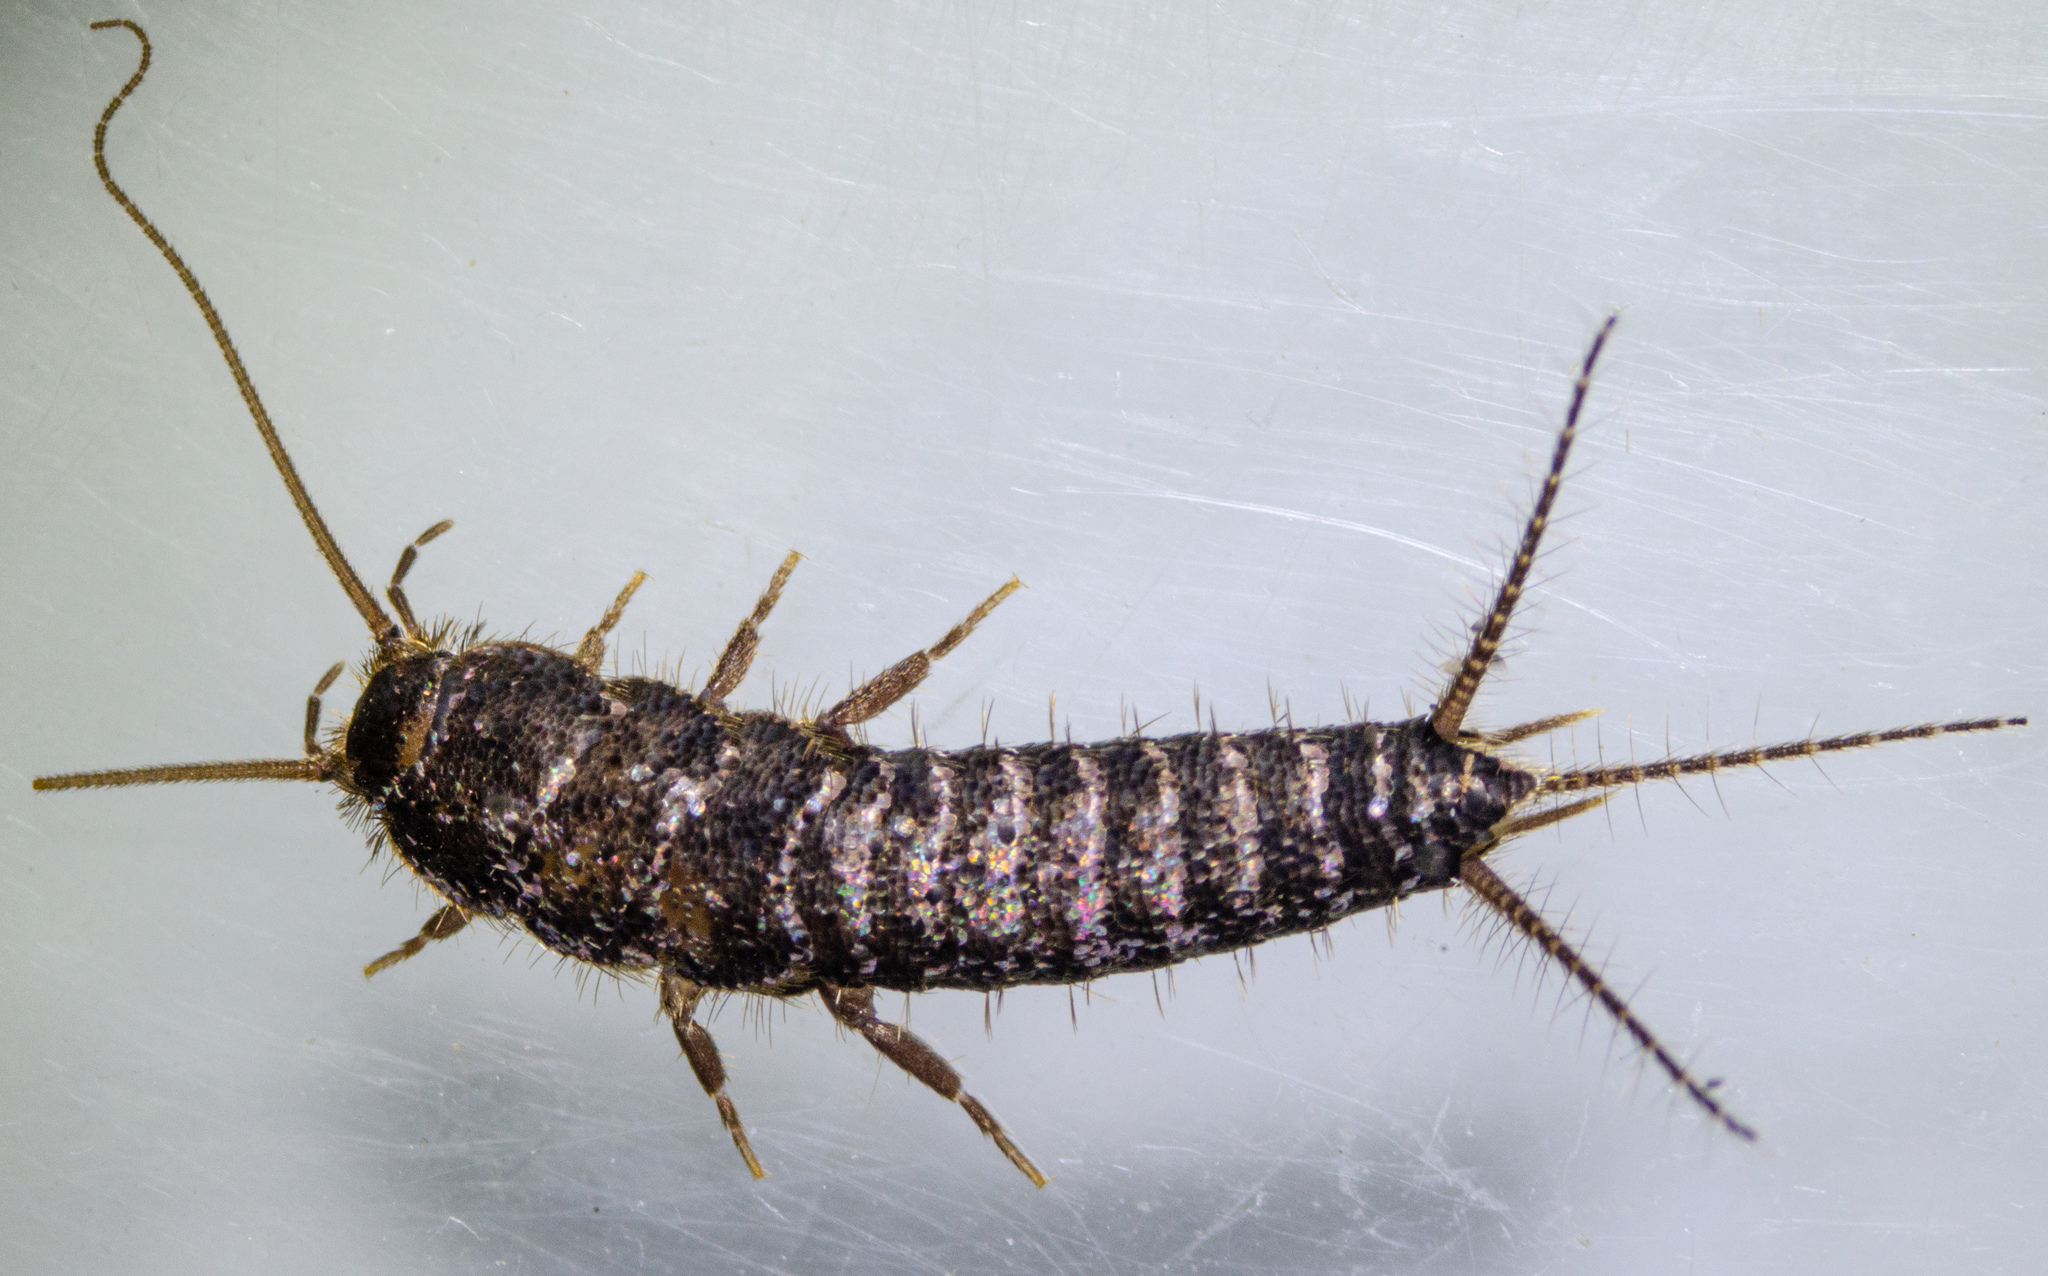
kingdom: Animalia
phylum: Arthropoda
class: Insecta
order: Zygentoma
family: Lepismatidae
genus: Allacrotelsa
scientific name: Allacrotelsa spinulata
